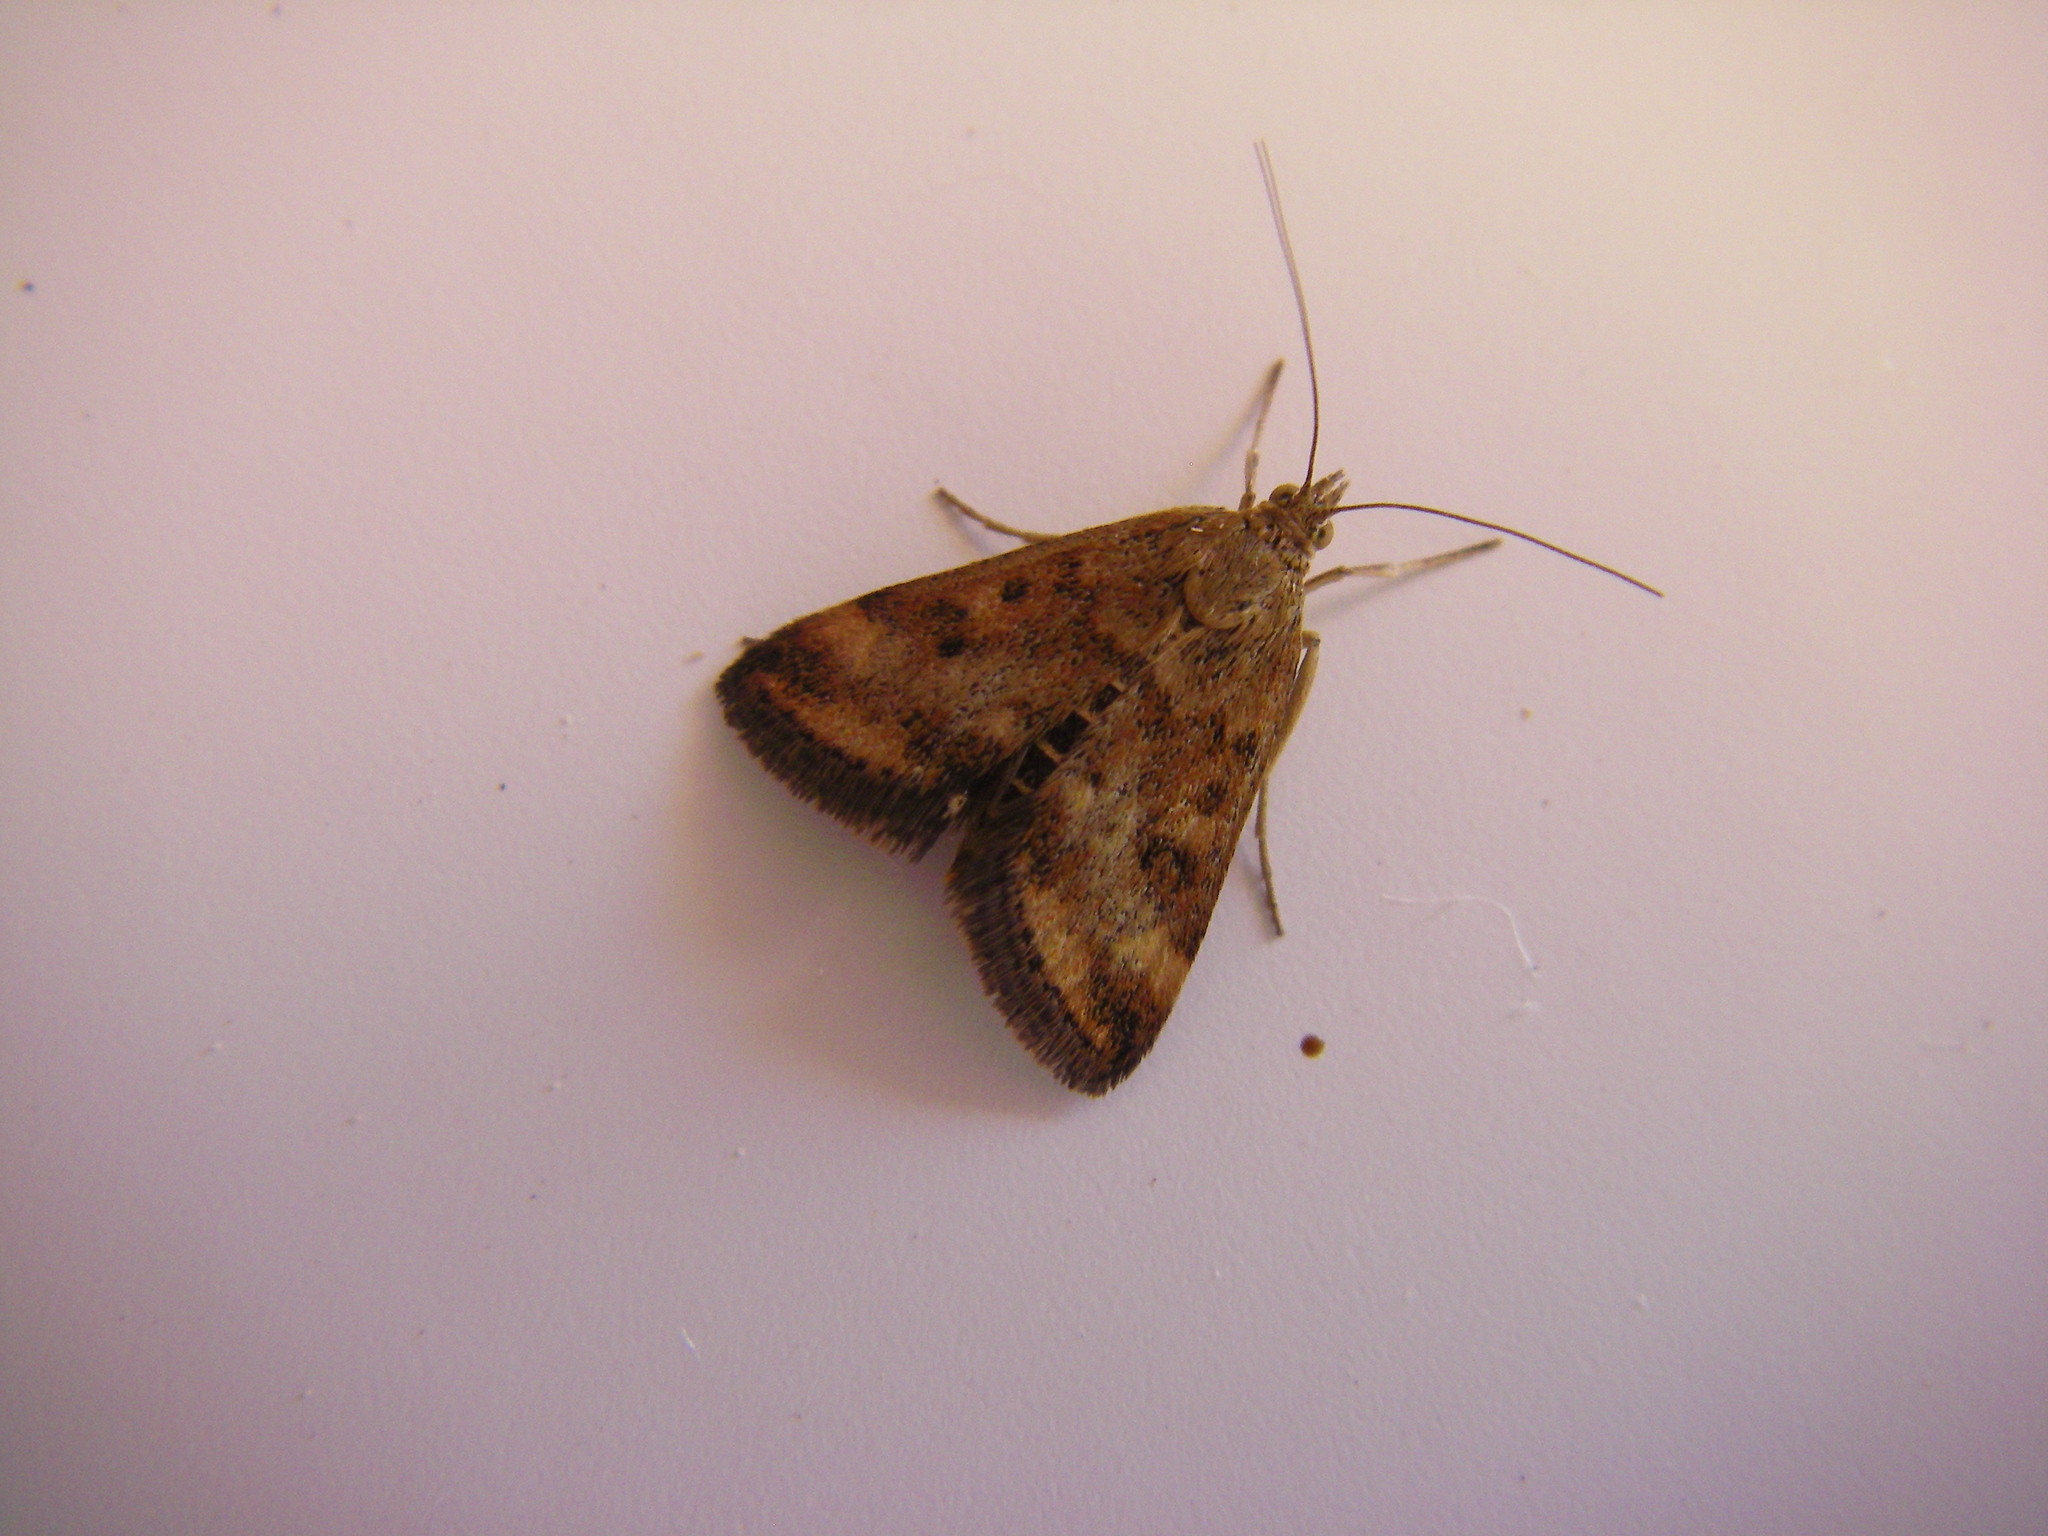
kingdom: Animalia
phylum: Arthropoda
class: Insecta
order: Lepidoptera
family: Crambidae
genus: Pyrausta
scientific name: Pyrausta despicata
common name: Straw-barred pearl
